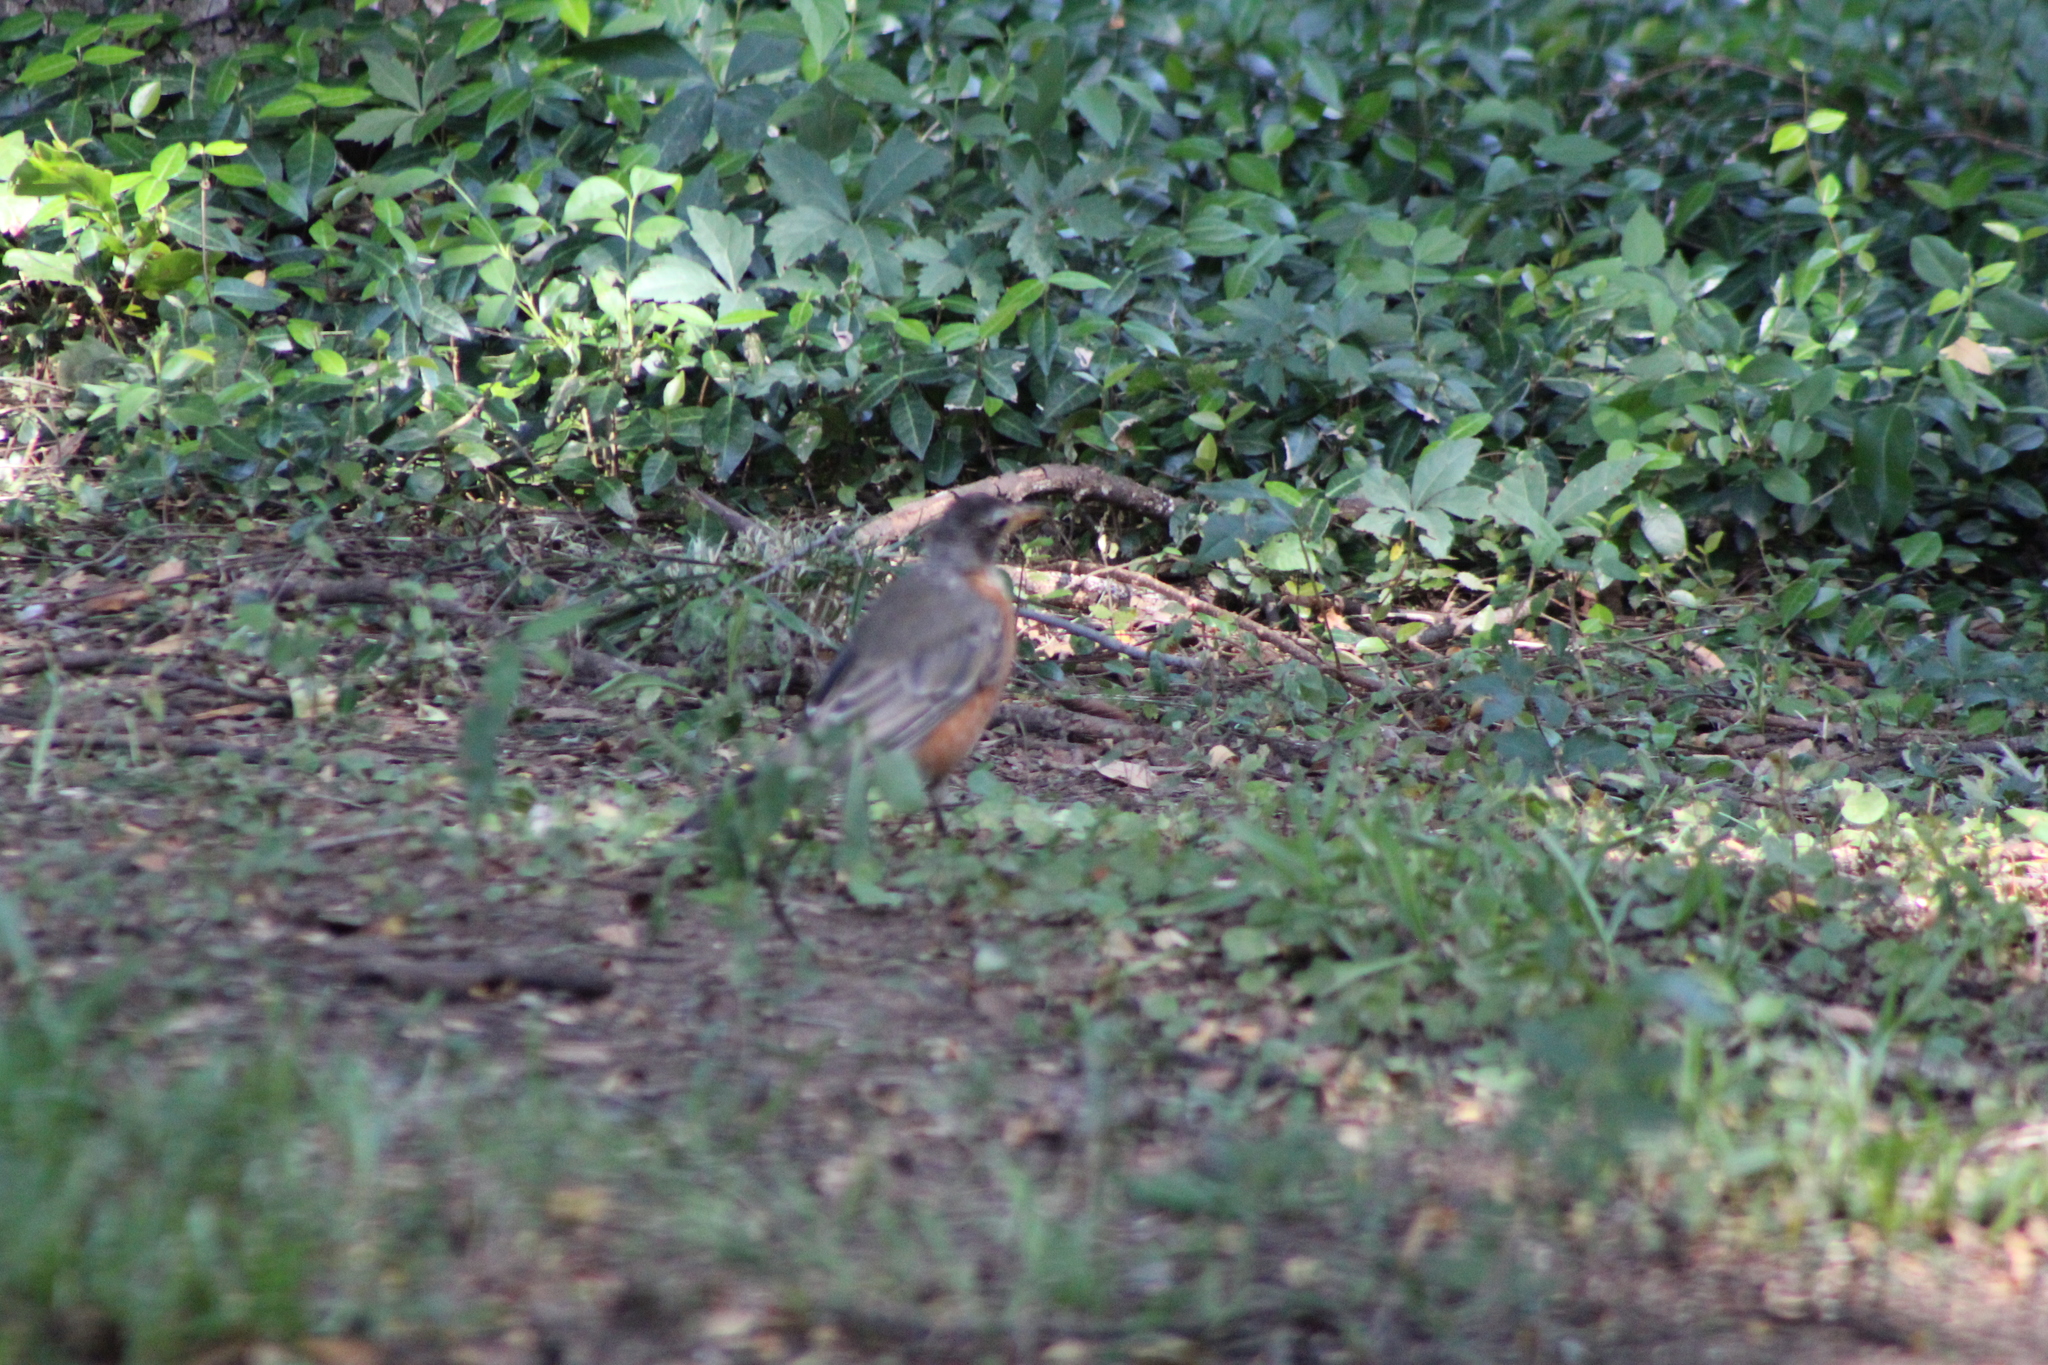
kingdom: Animalia
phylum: Chordata
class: Aves
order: Passeriformes
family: Turdidae
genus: Turdus
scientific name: Turdus migratorius
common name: American robin
